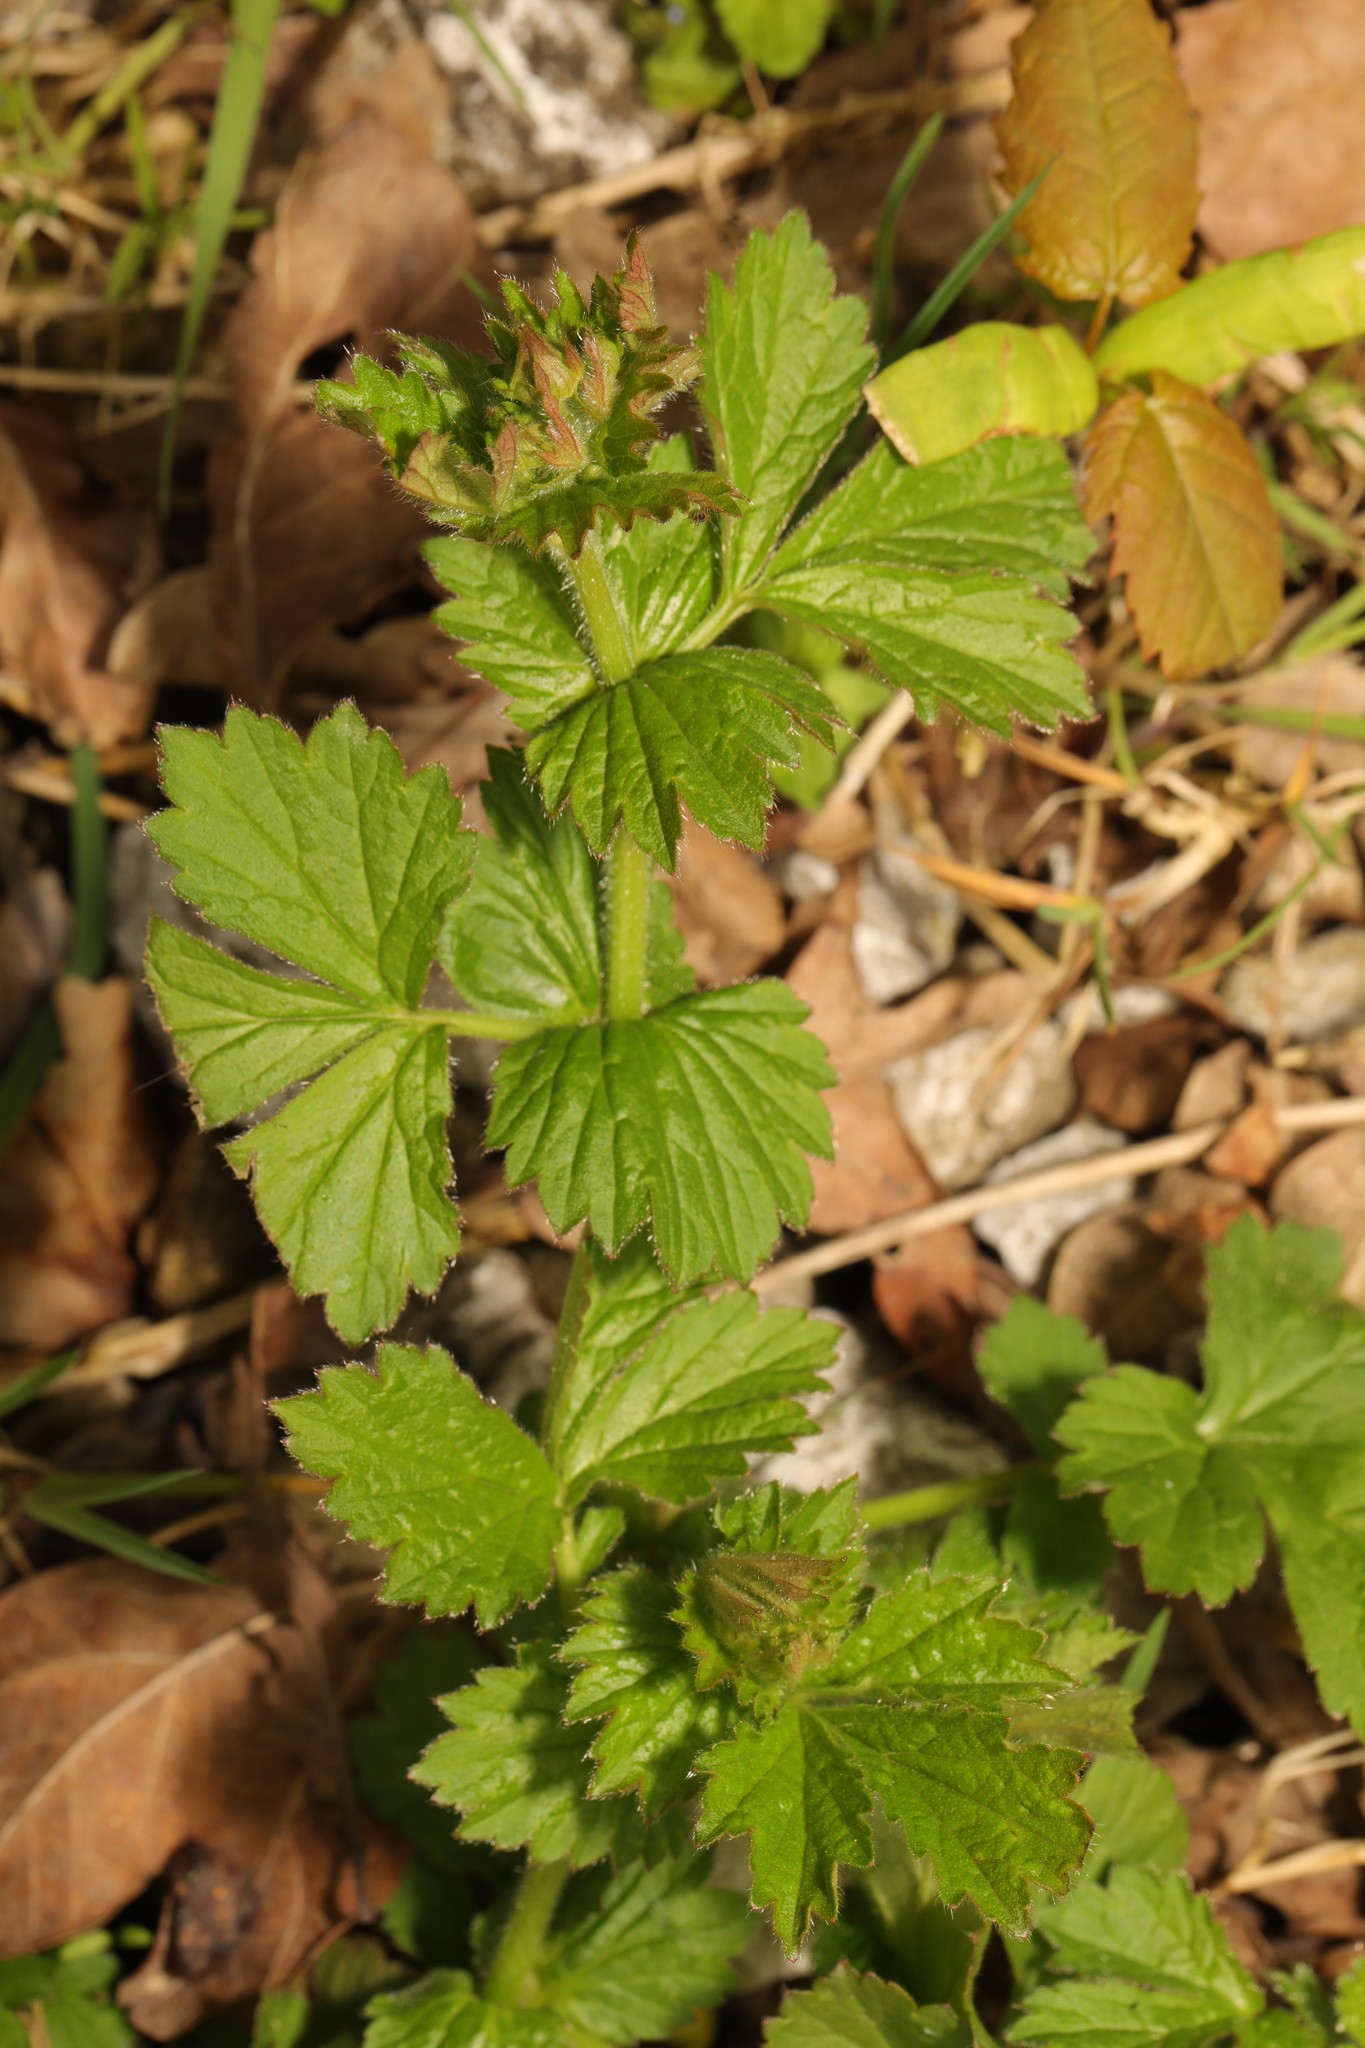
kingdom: Plantae
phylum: Tracheophyta
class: Magnoliopsida
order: Rosales
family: Rosaceae
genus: Geum
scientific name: Geum urbanum
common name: Wood avens
